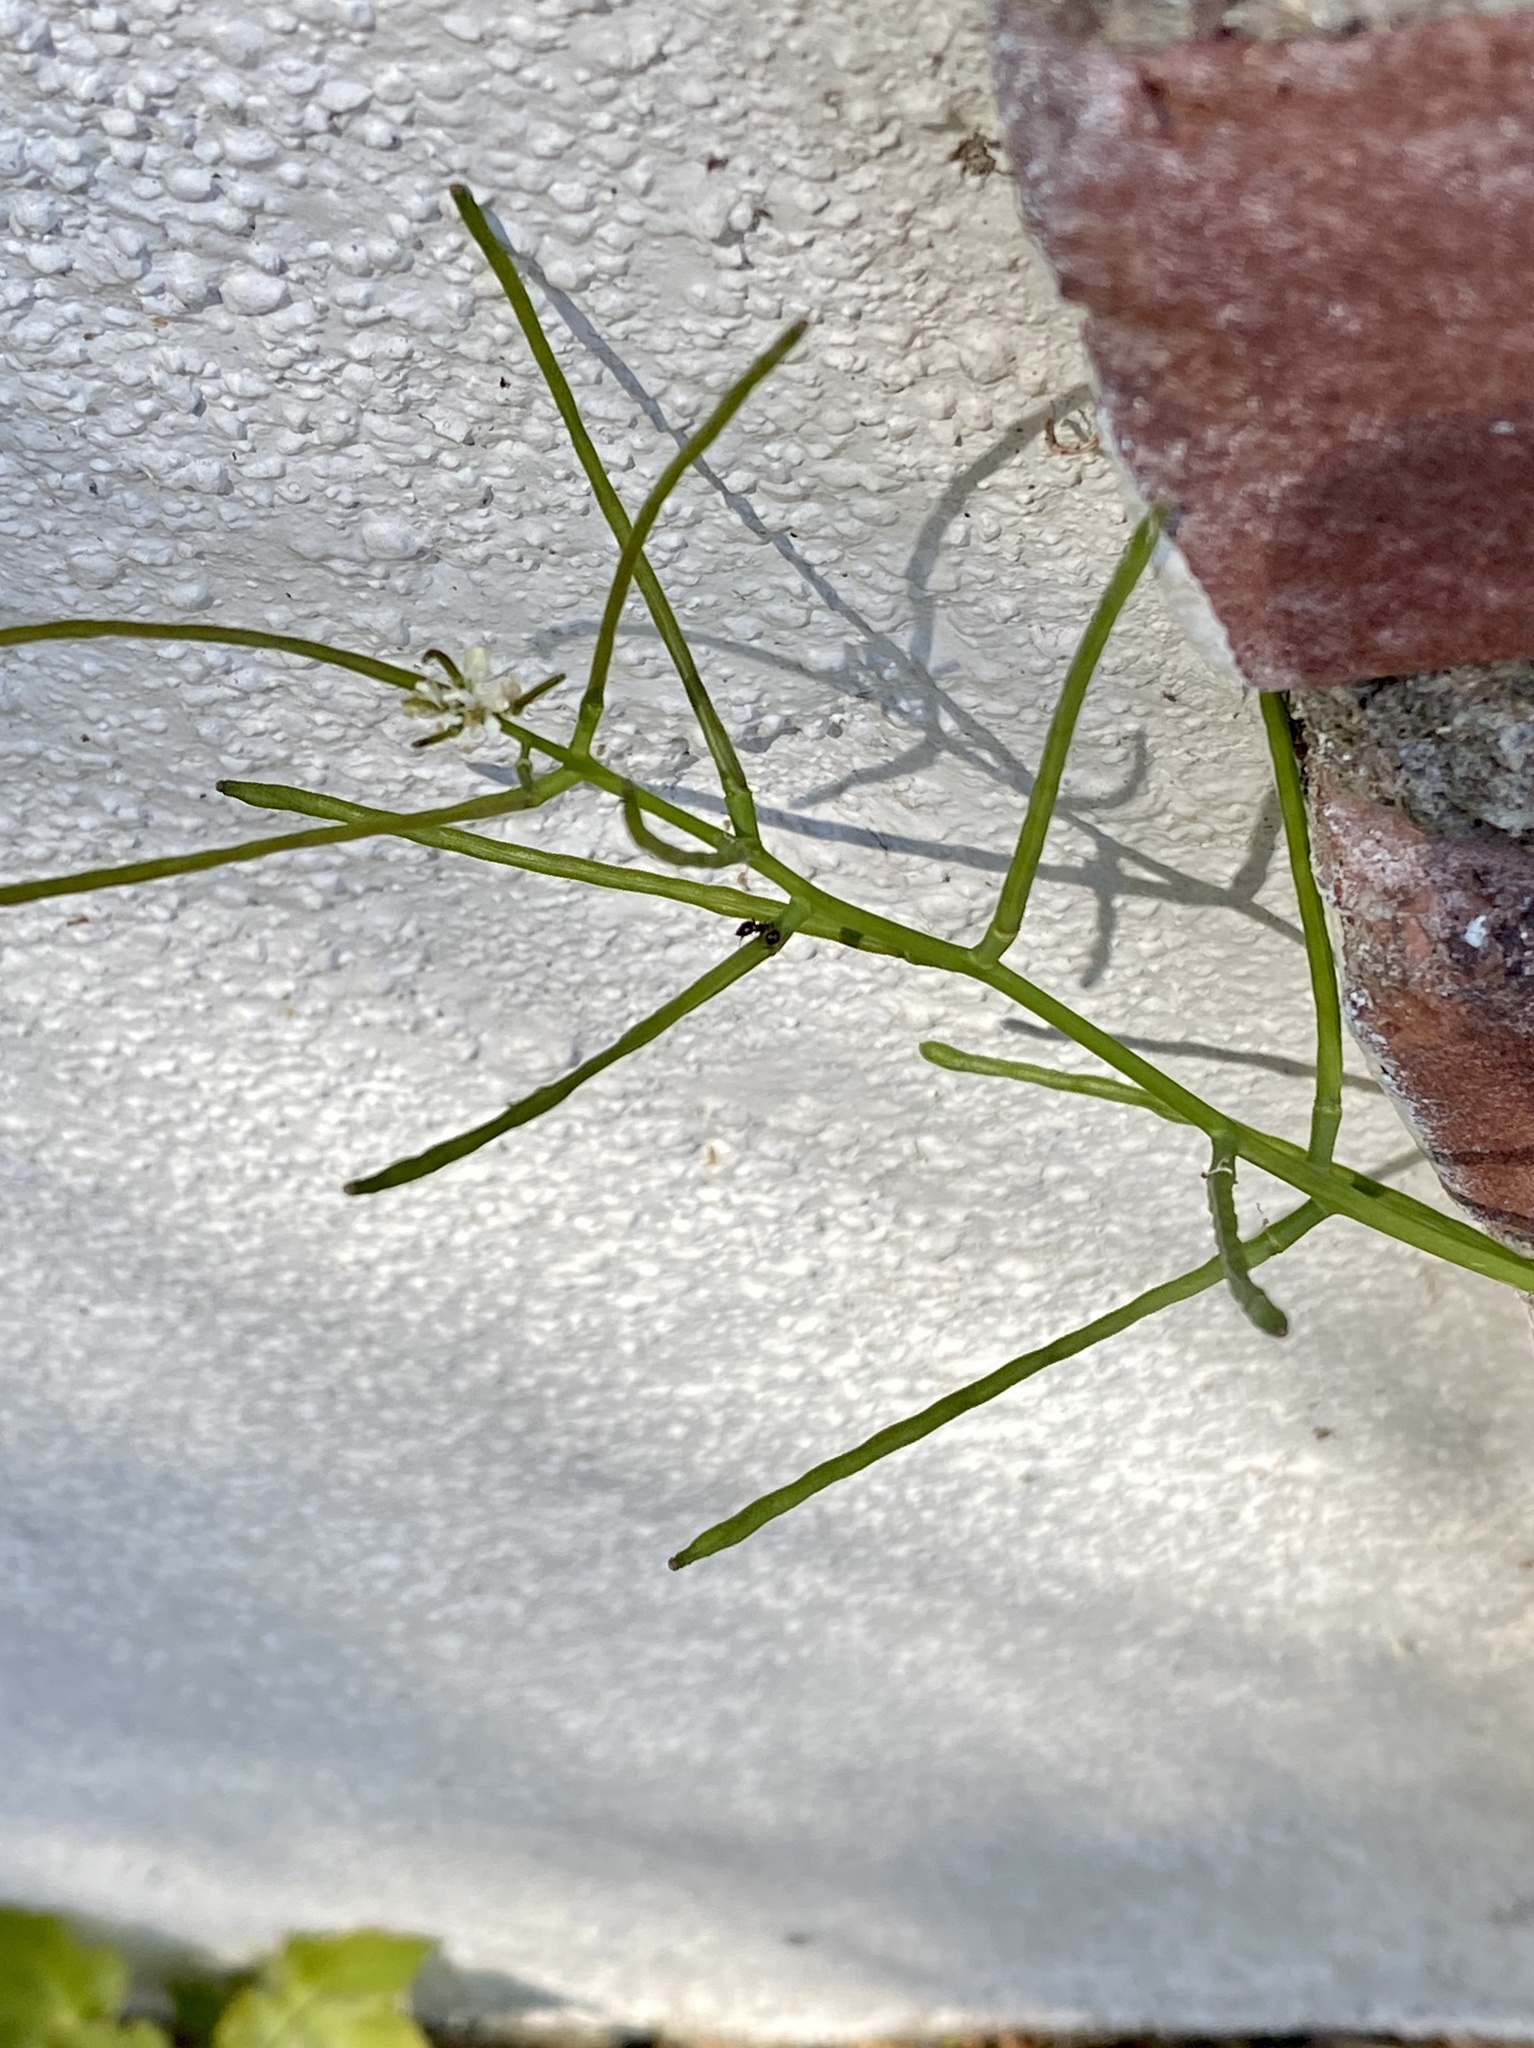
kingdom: Plantae
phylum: Tracheophyta
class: Magnoliopsida
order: Brassicales
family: Brassicaceae
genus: Alliaria
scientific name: Alliaria petiolata
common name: Garlic mustard
